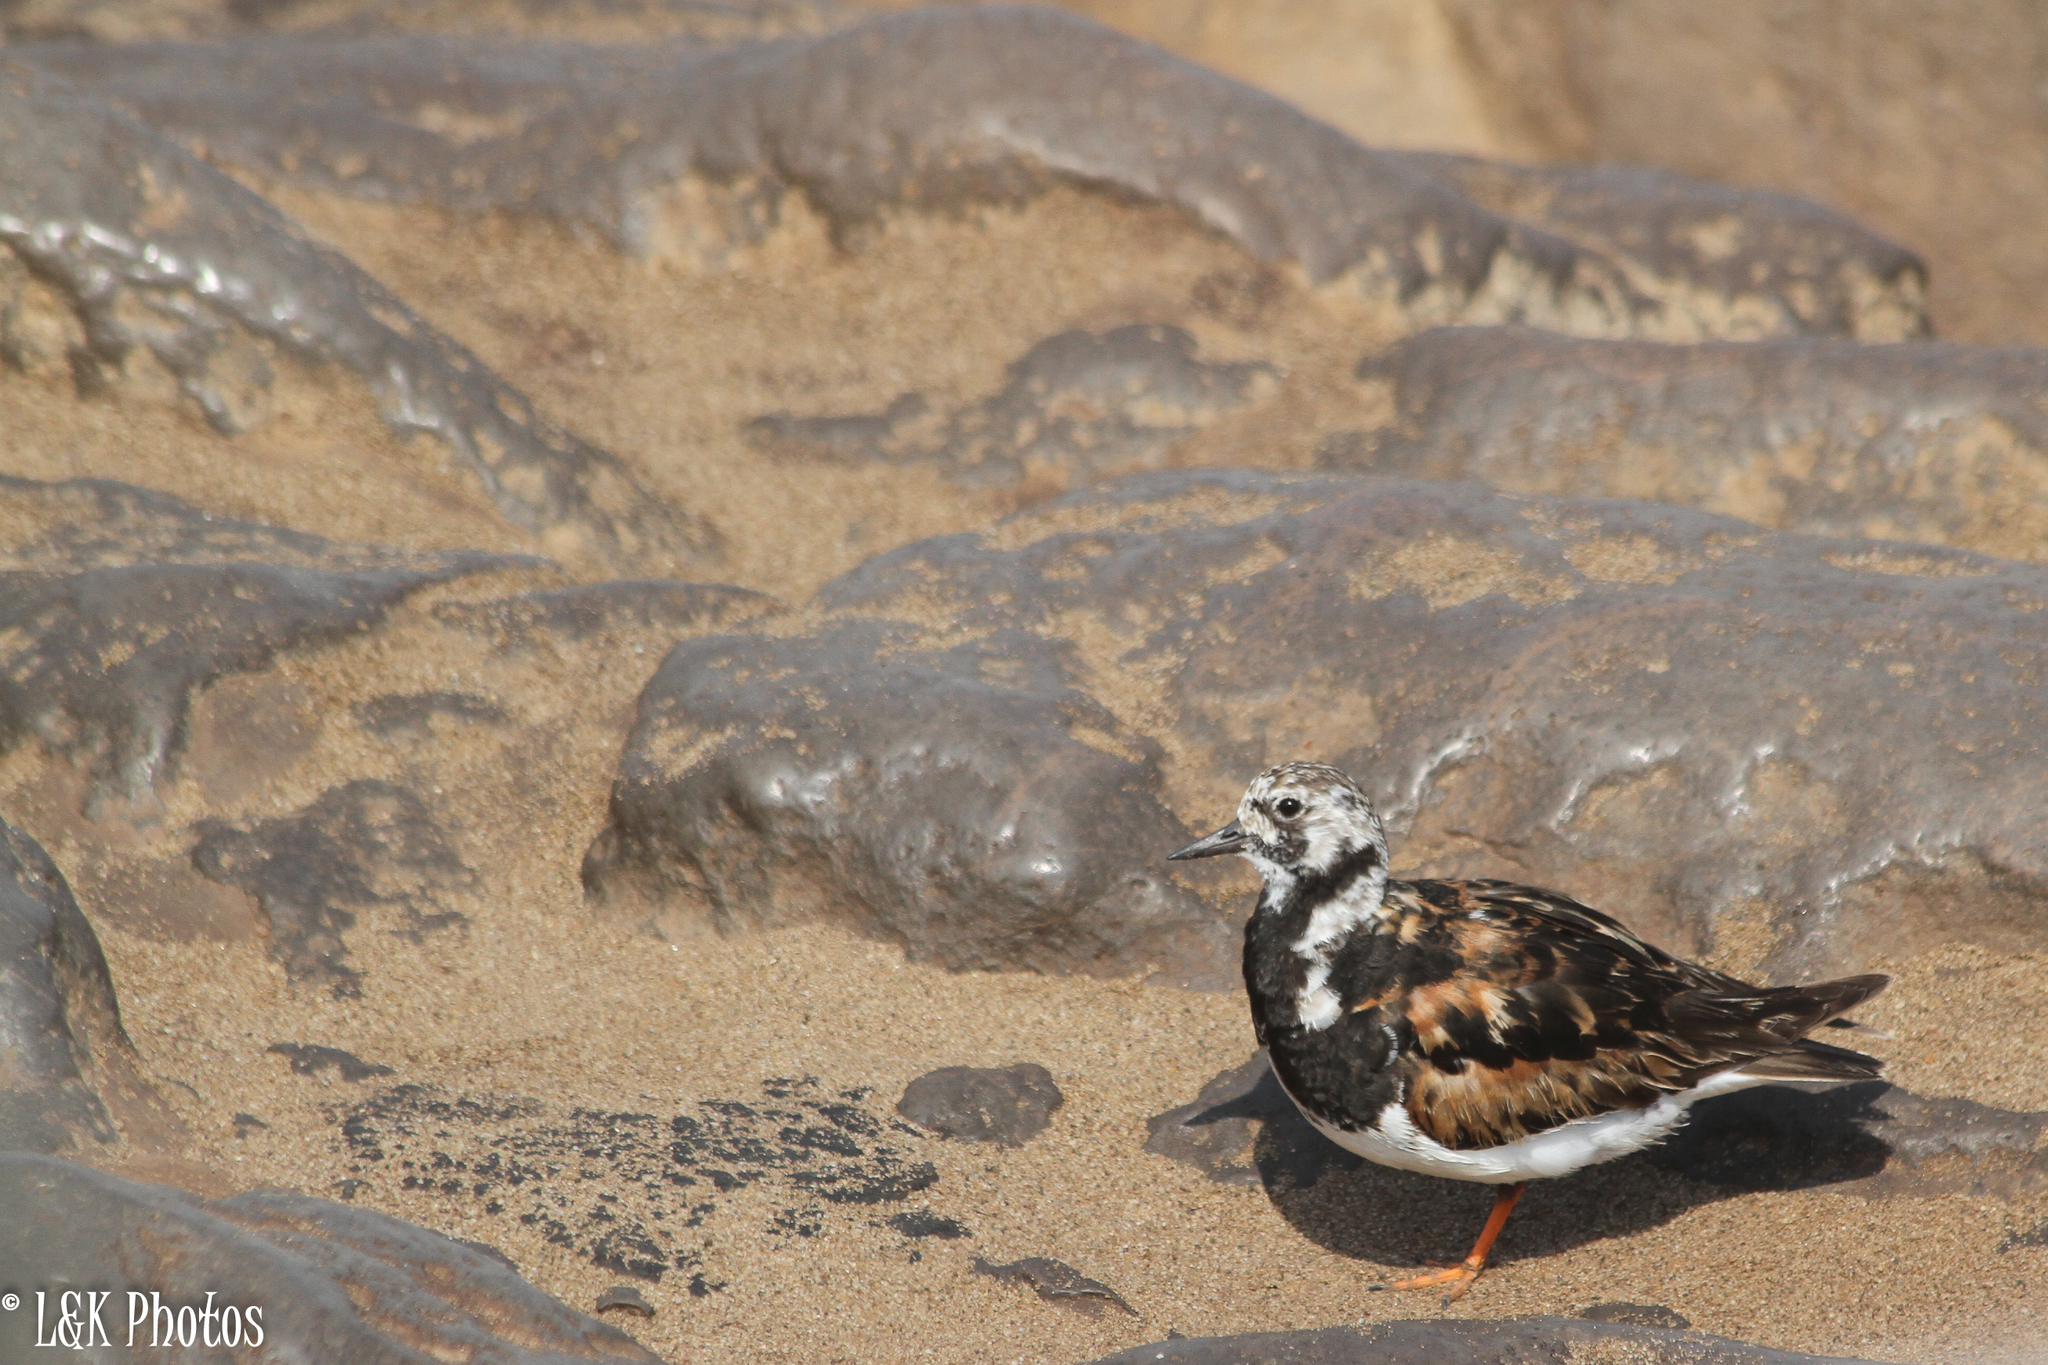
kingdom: Animalia
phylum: Chordata
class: Aves
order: Charadriiformes
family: Scolopacidae
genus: Arenaria
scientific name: Arenaria interpres
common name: Ruddy turnstone
